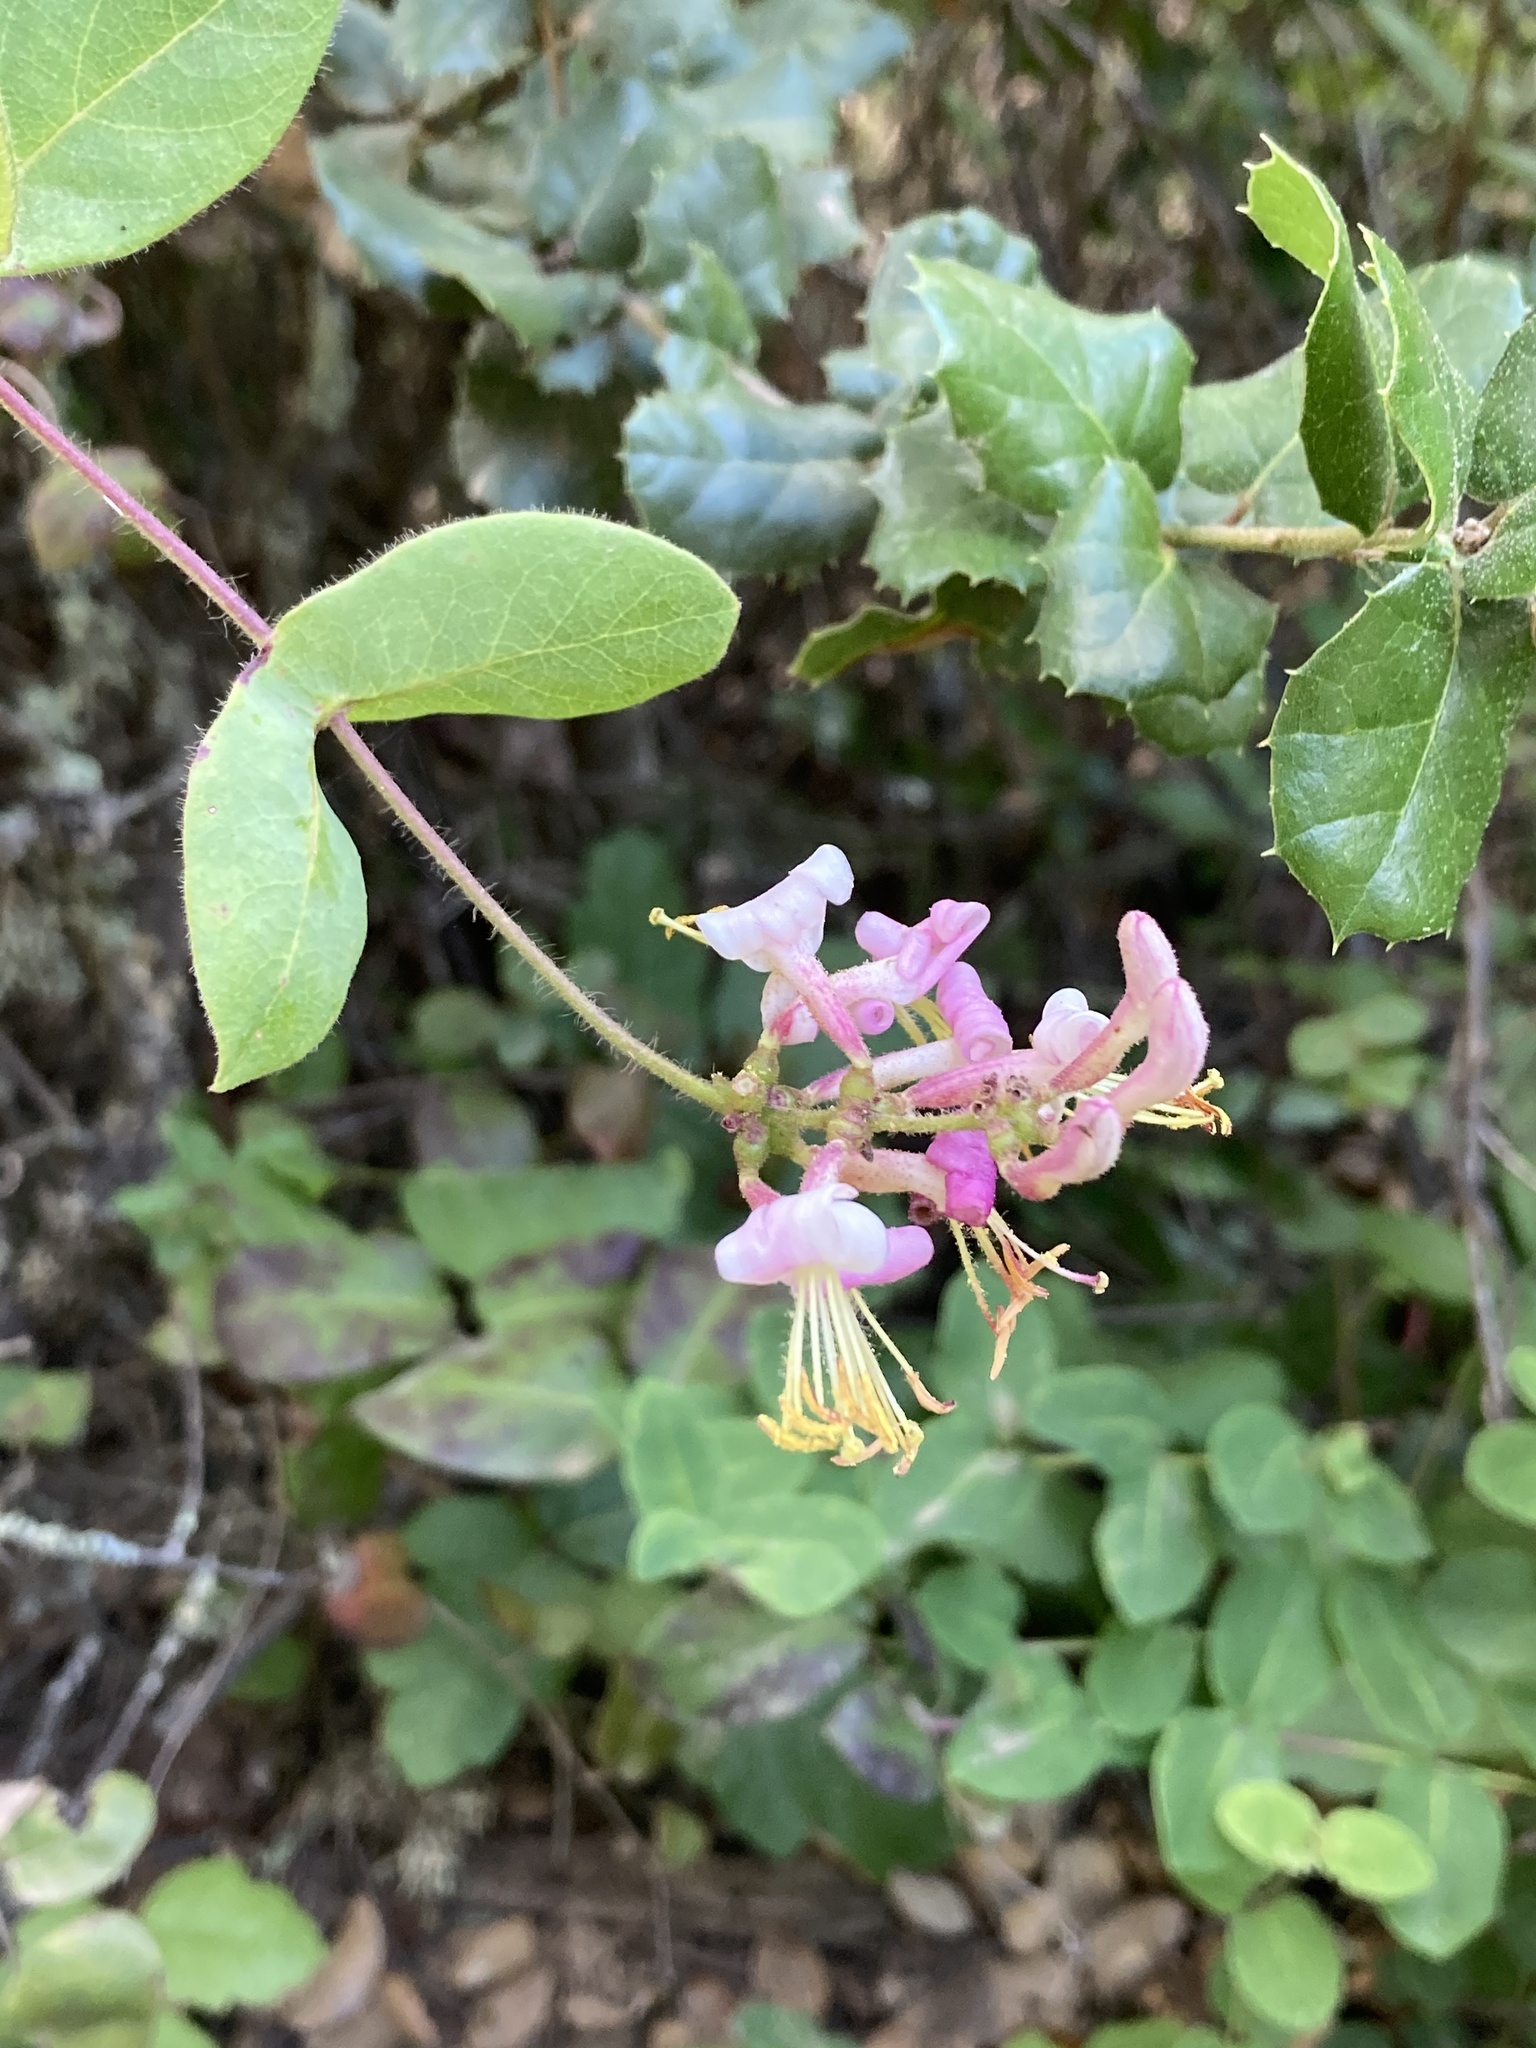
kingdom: Plantae
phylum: Tracheophyta
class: Magnoliopsida
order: Dipsacales
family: Caprifoliaceae
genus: Lonicera
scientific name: Lonicera hispidula
